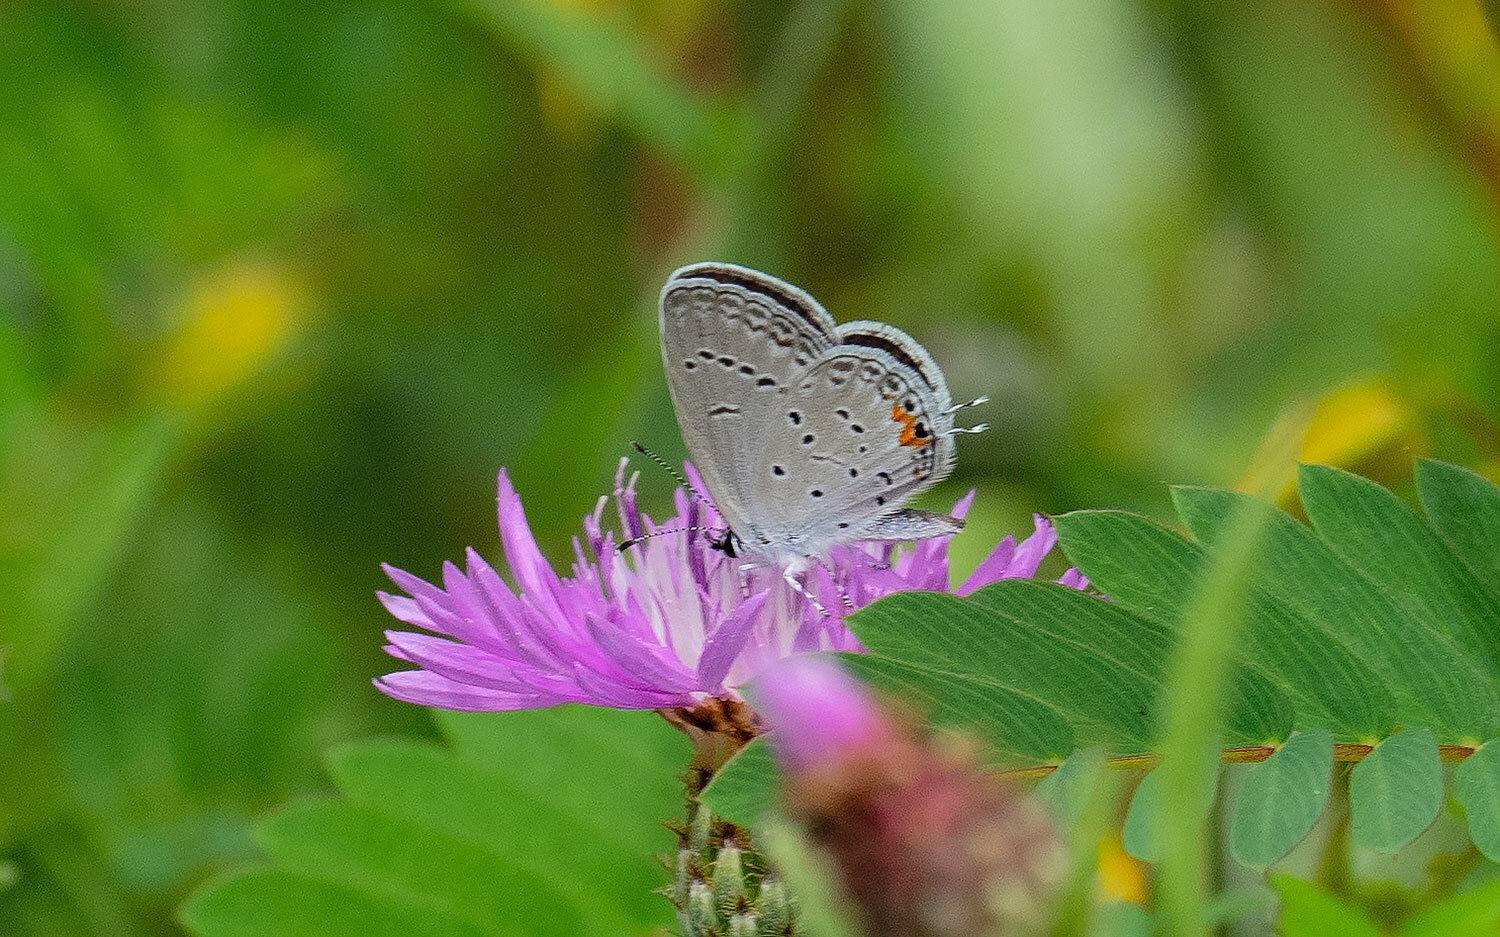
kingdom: Animalia
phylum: Arthropoda
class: Insecta
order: Lepidoptera
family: Lycaenidae
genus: Elkalyce
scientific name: Elkalyce comyntas
